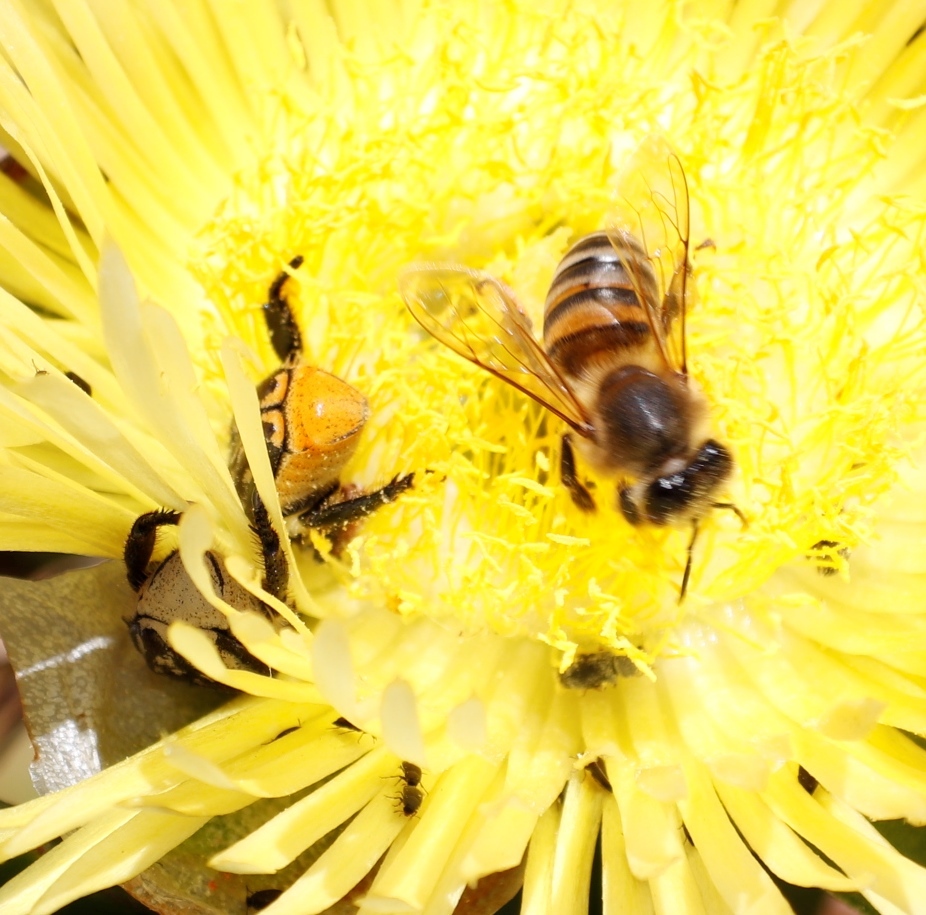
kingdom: Animalia
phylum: Arthropoda
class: Insecta
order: Hymenoptera
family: Apidae
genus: Apis
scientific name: Apis mellifera
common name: Honey bee
